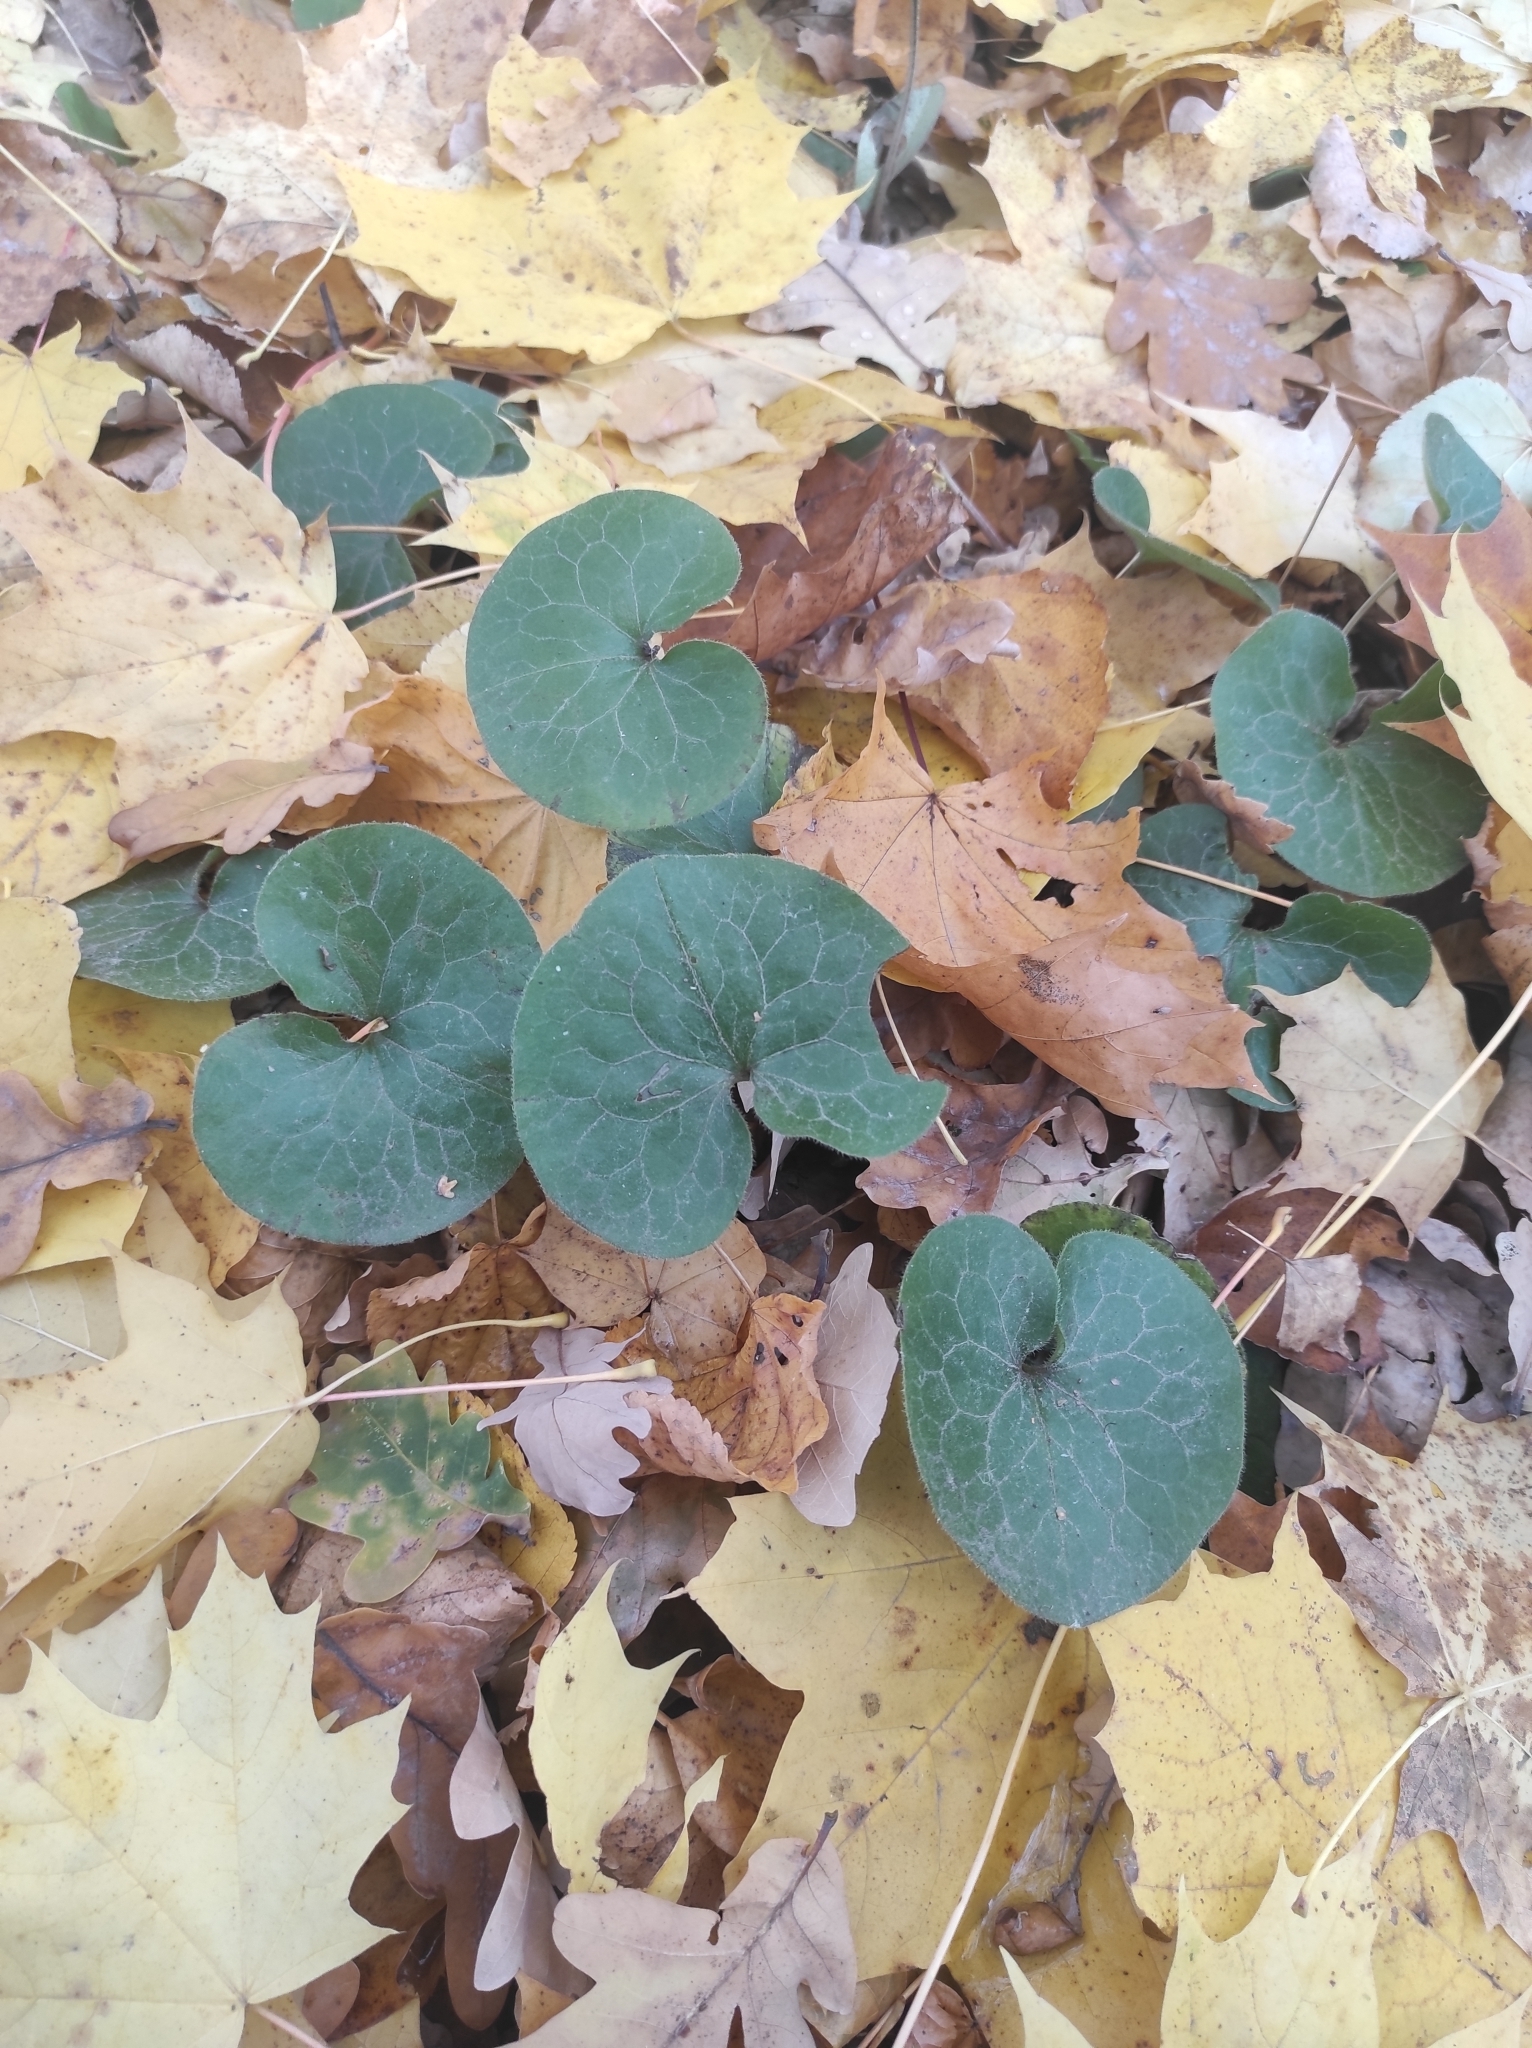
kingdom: Plantae
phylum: Tracheophyta
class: Magnoliopsida
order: Piperales
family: Aristolochiaceae
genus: Asarum
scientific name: Asarum europaeum
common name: Asarabacca
